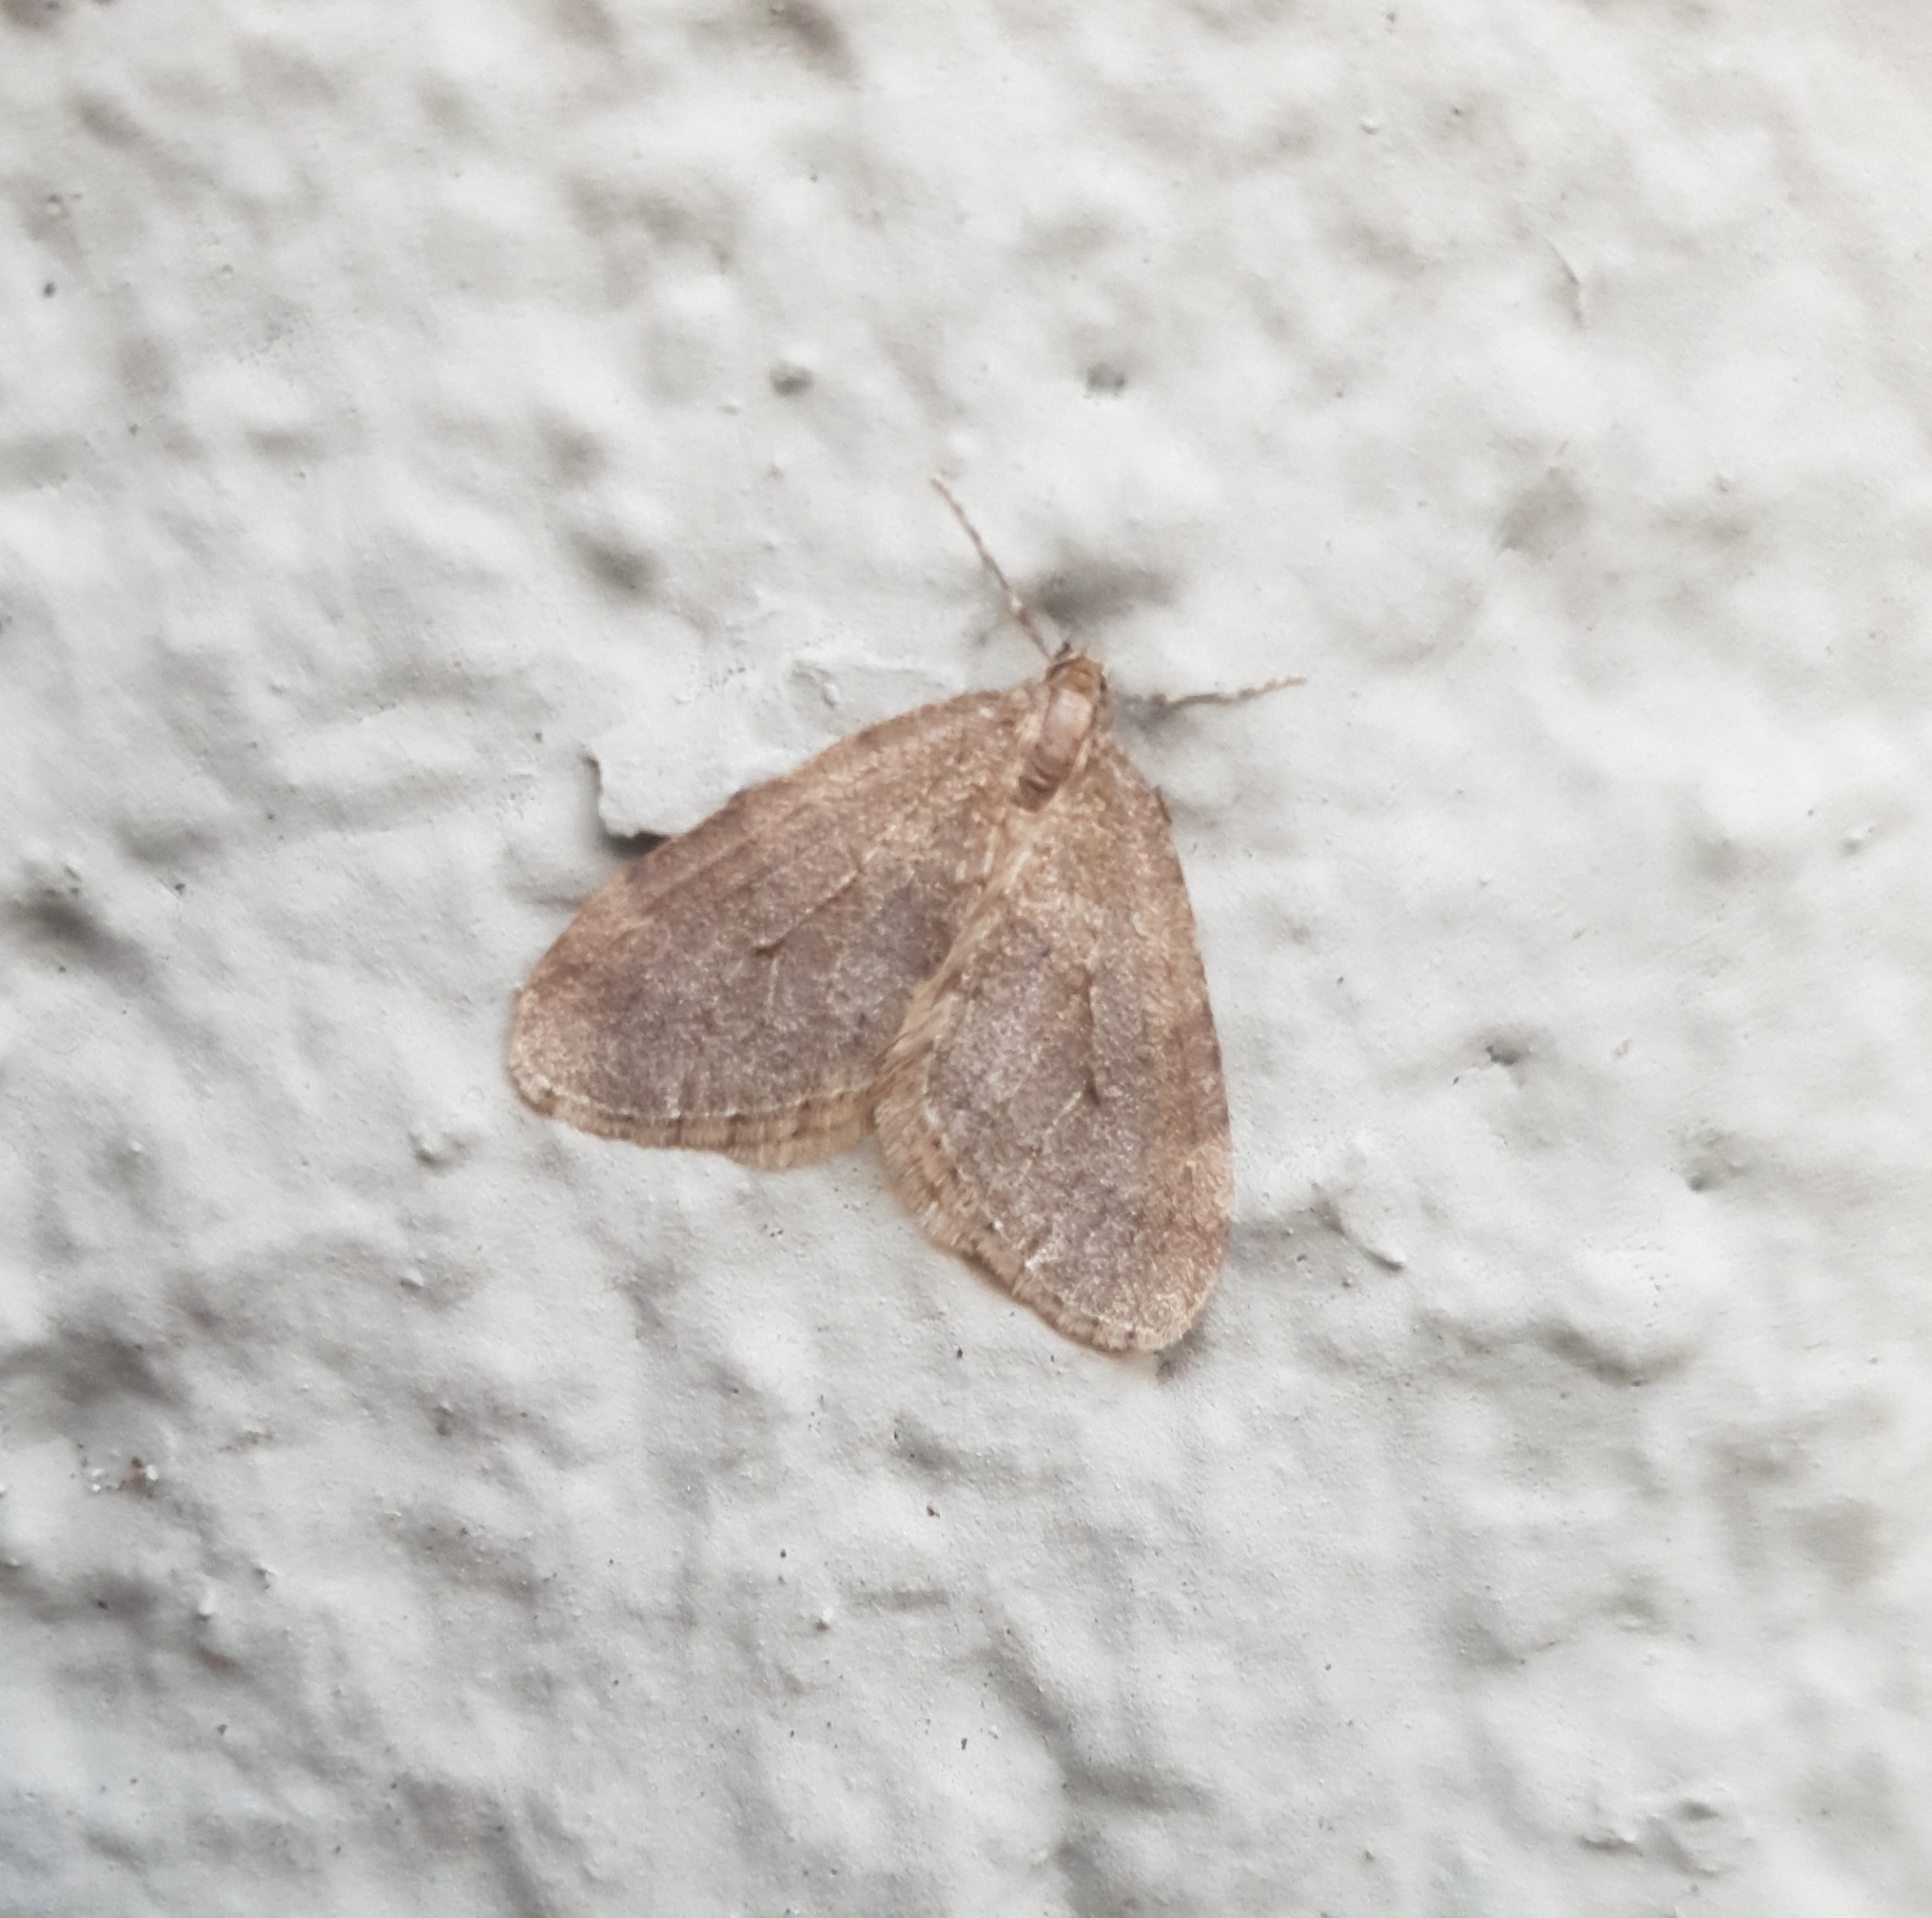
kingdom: Animalia
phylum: Arthropoda
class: Insecta
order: Lepidoptera
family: Geometridae
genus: Operophtera
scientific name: Operophtera brumata
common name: Winter moth
